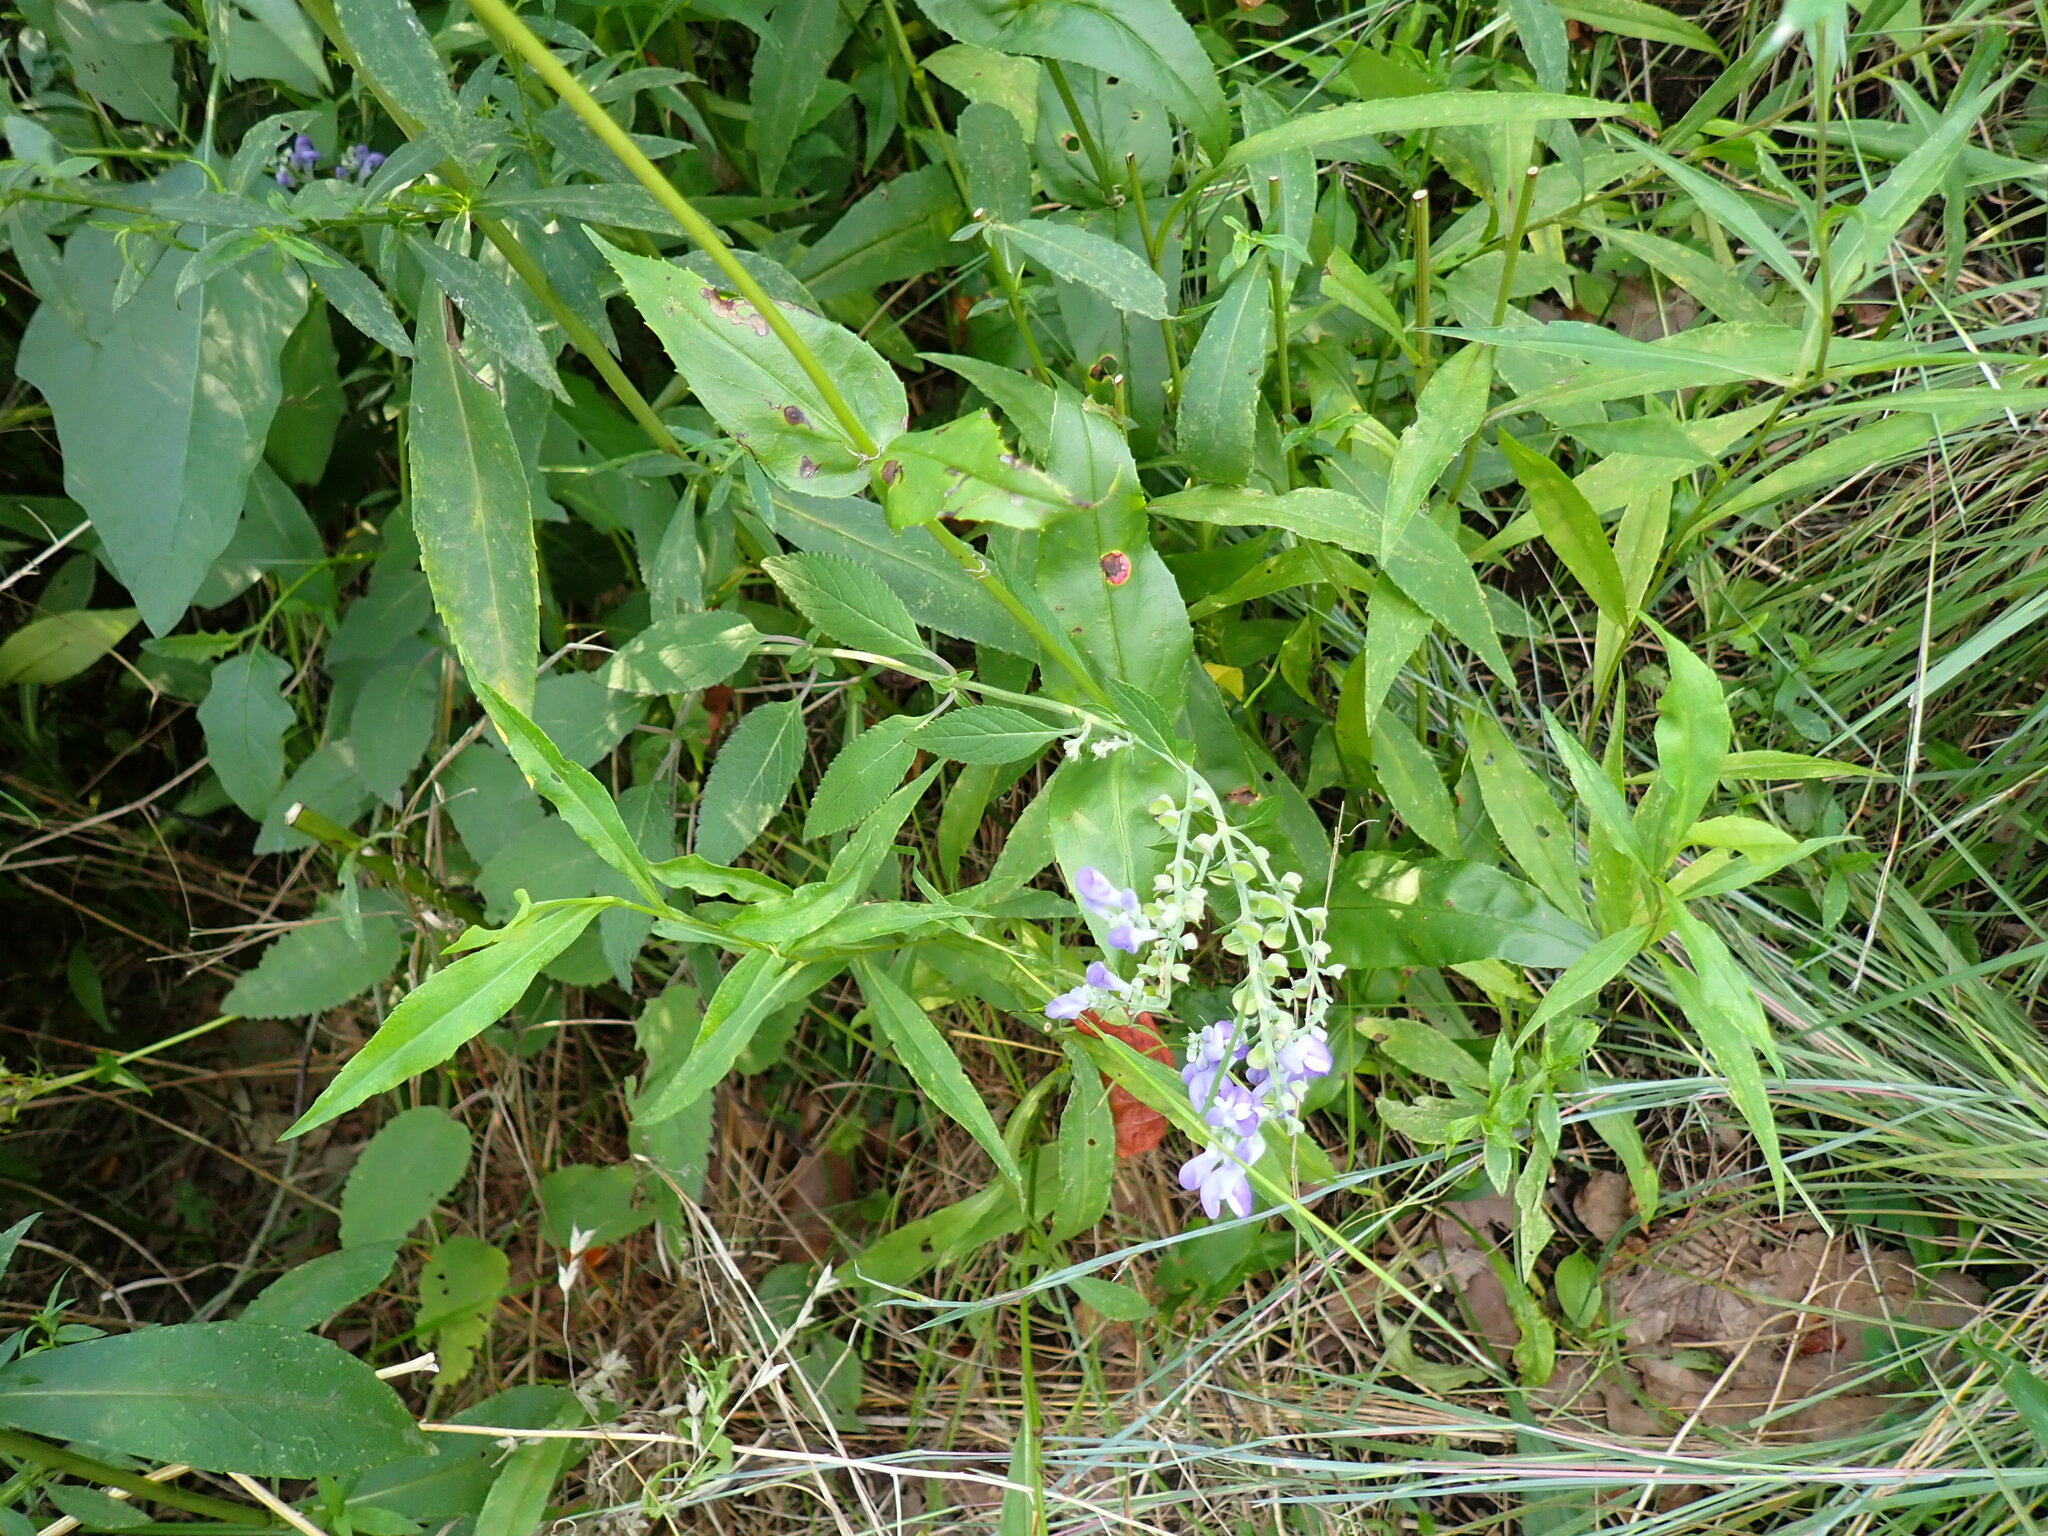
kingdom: Plantae
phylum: Tracheophyta
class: Magnoliopsida
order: Lamiales
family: Lamiaceae
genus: Scutellaria
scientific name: Scutellaria incana
